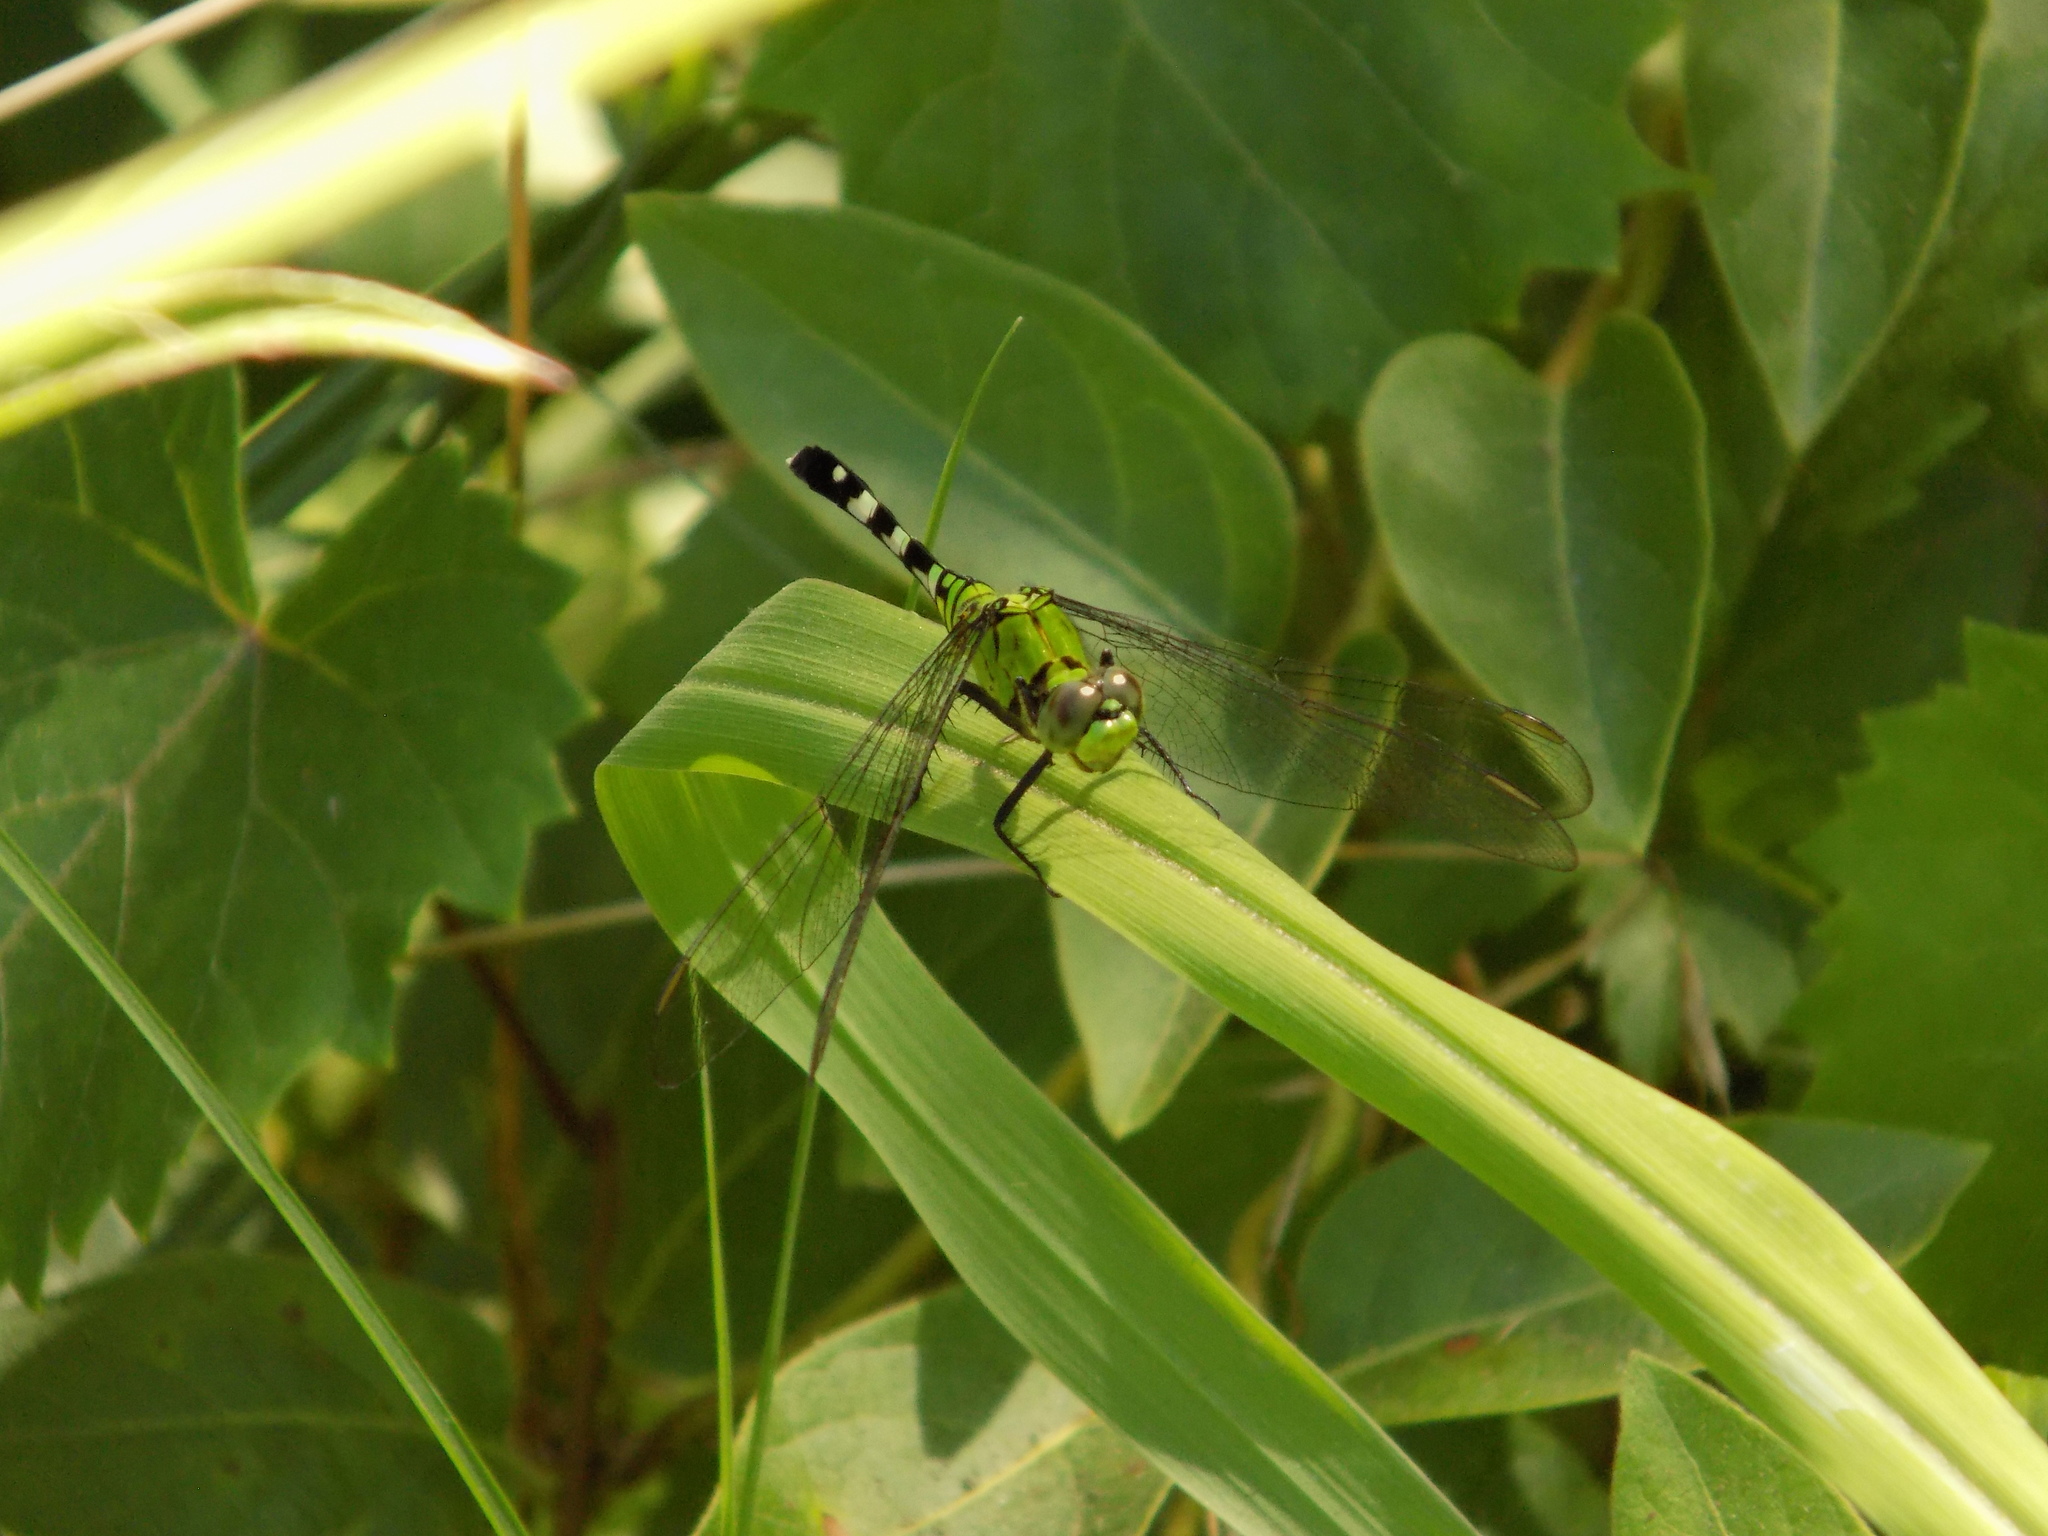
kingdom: Animalia
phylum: Arthropoda
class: Insecta
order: Odonata
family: Libellulidae
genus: Erythemis
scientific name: Erythemis simplicicollis
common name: Eastern pondhawk
